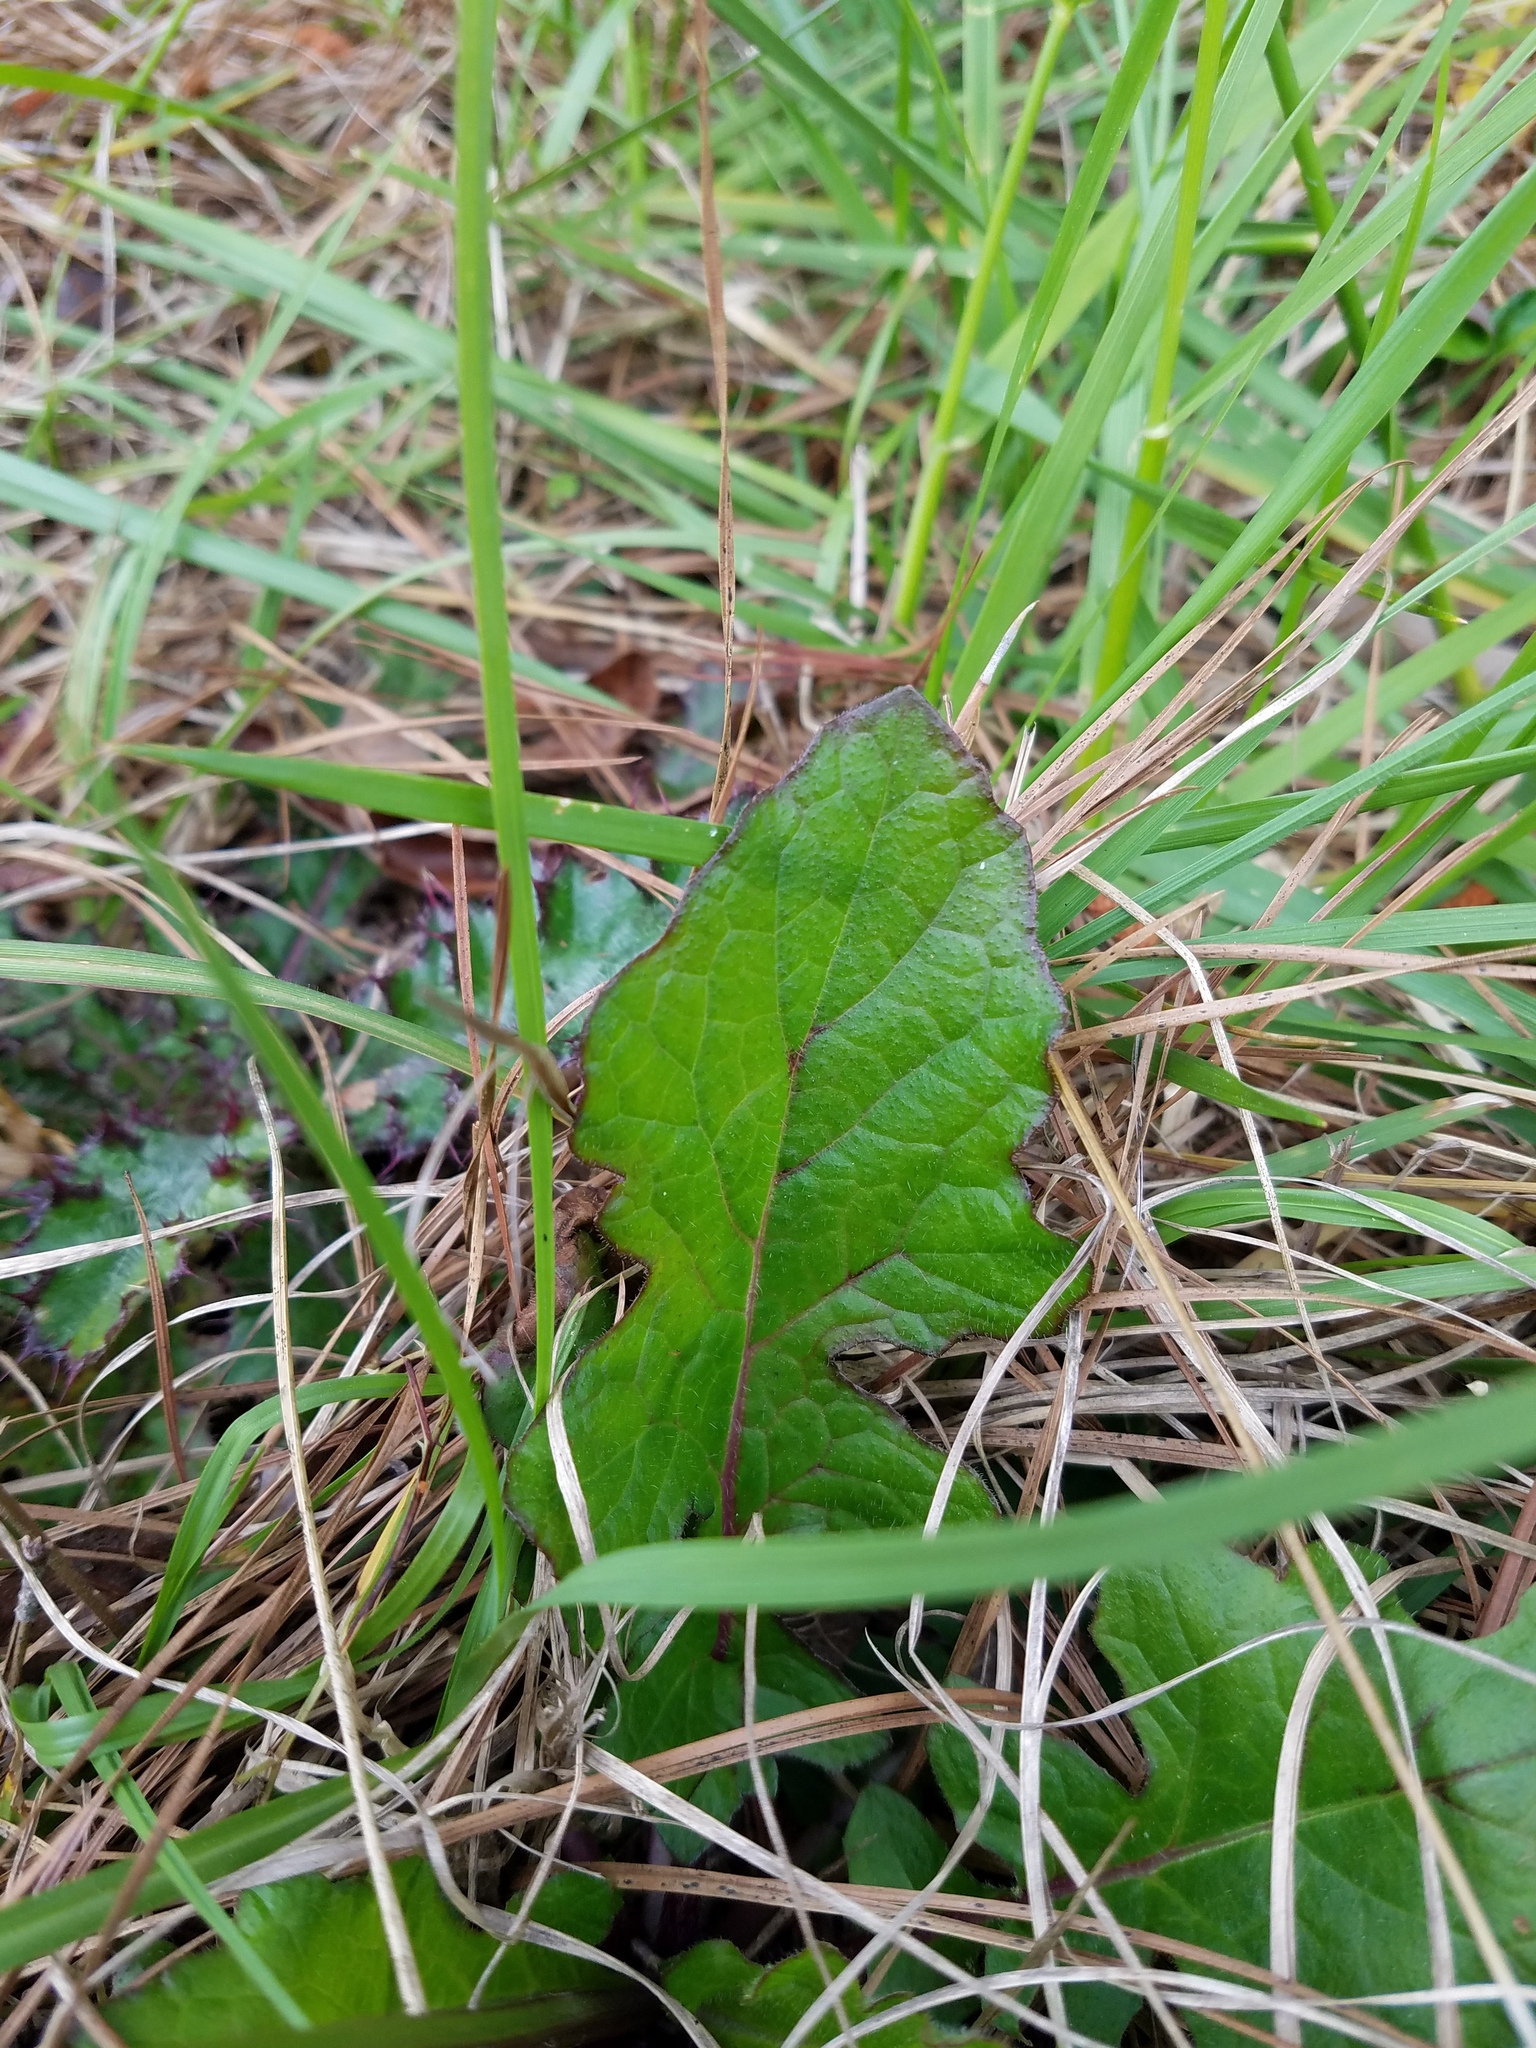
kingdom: Plantae
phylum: Tracheophyta
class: Magnoliopsida
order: Lamiales
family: Lamiaceae
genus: Salvia
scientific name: Salvia lyrata
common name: Cancerweed
